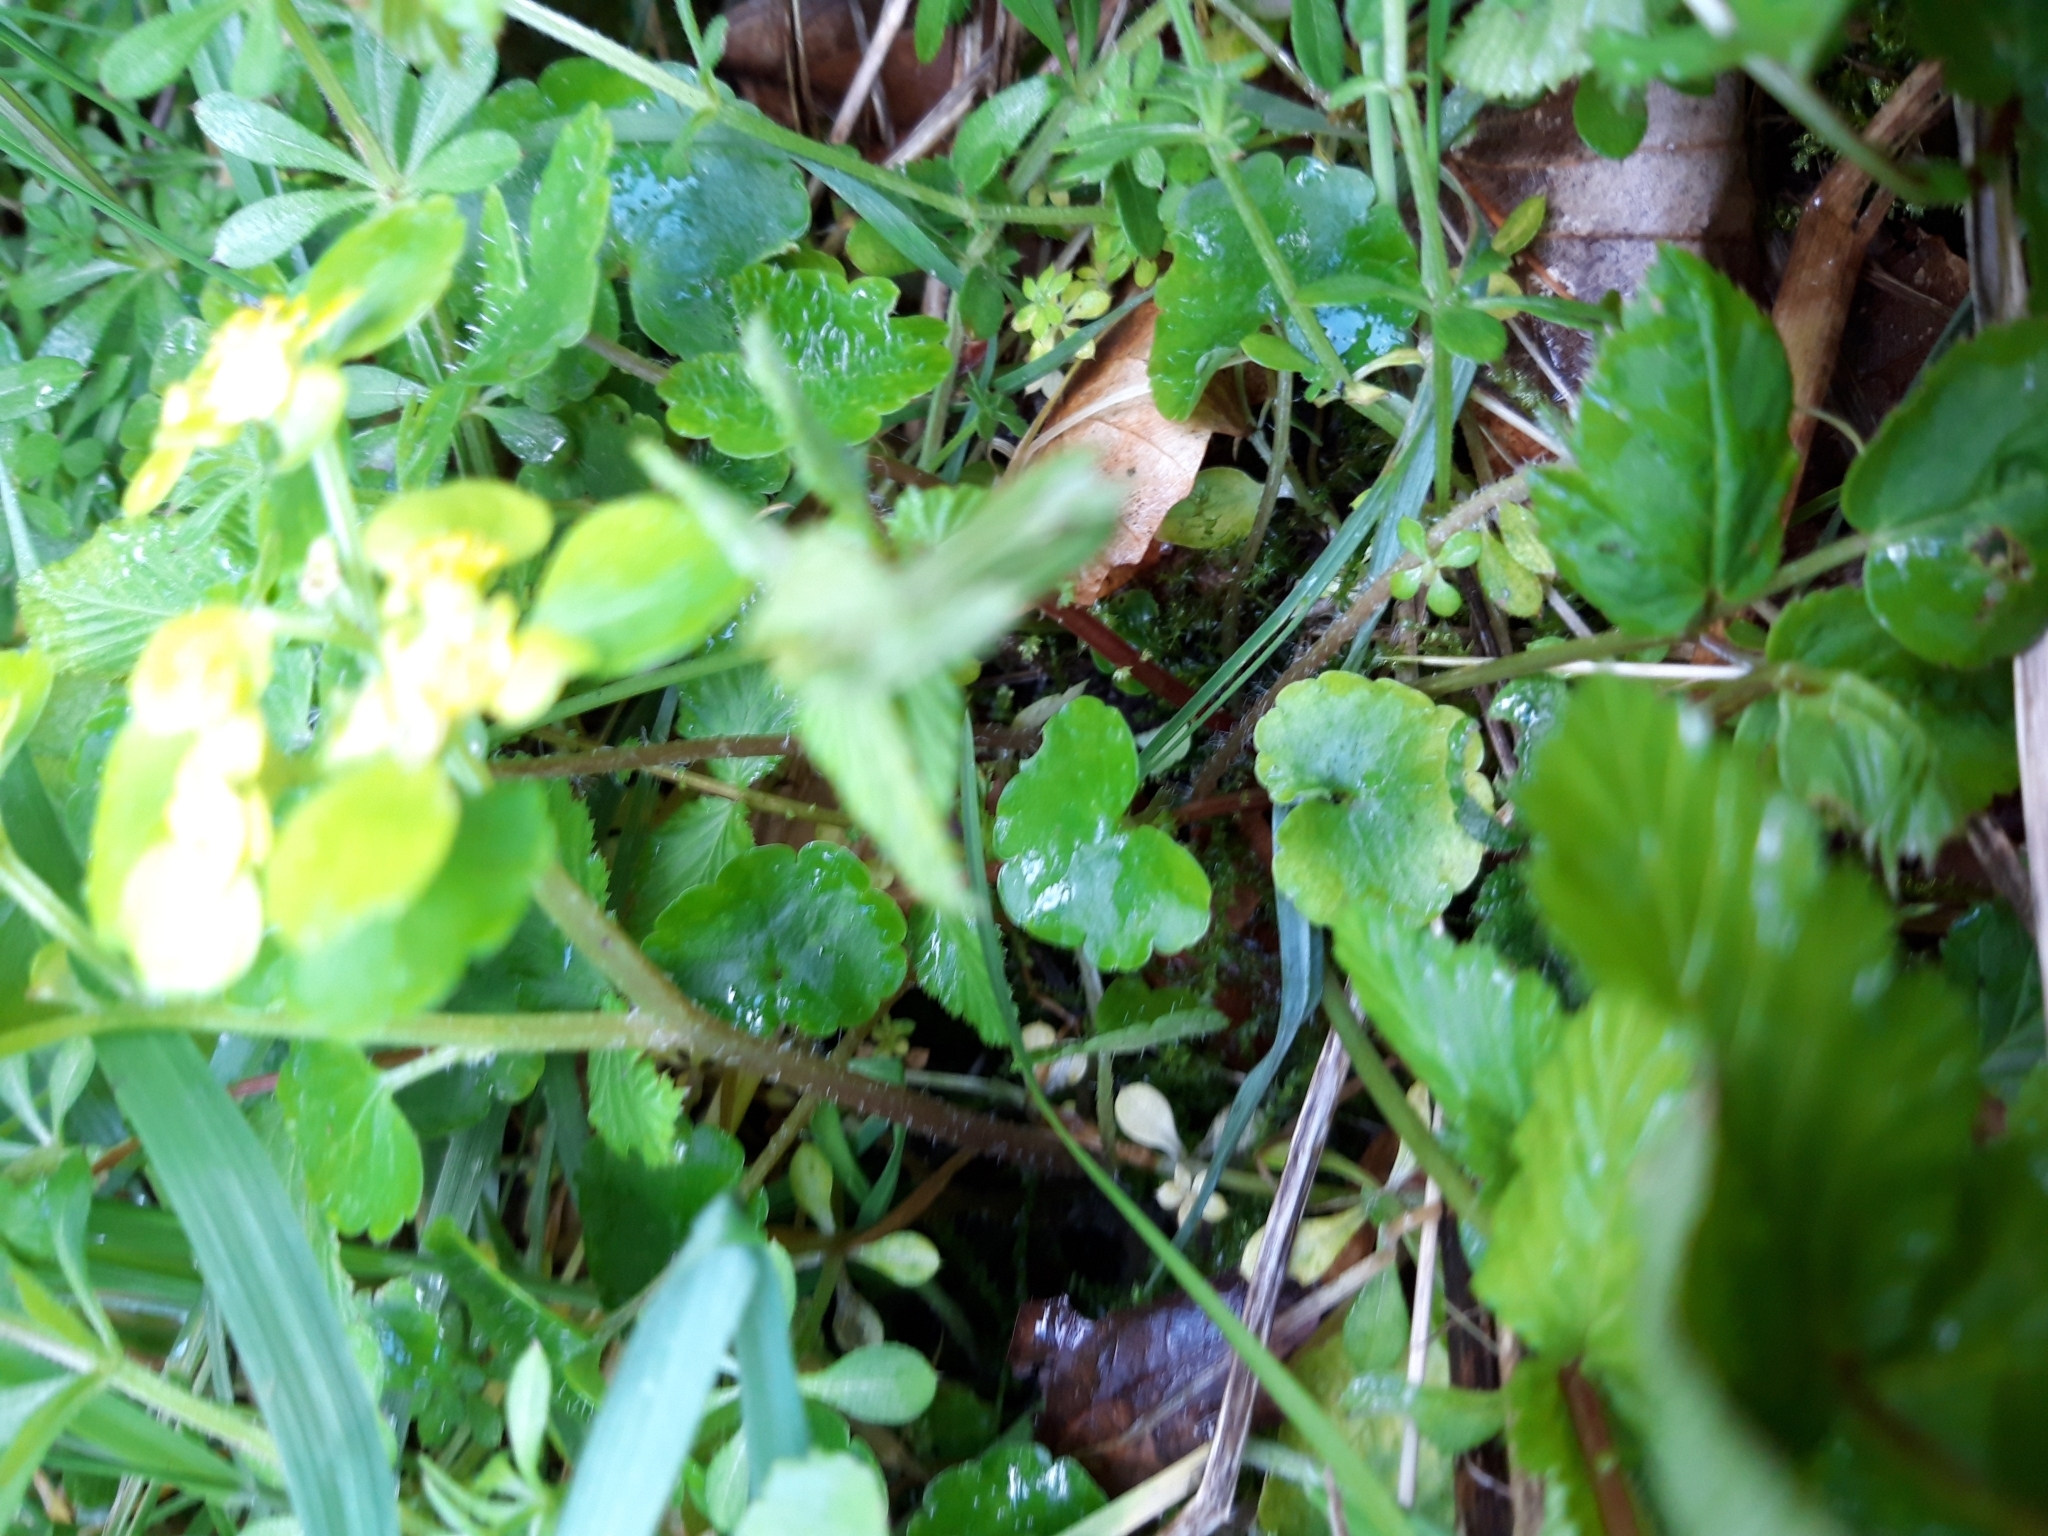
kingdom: Plantae
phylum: Tracheophyta
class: Magnoliopsida
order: Saxifragales
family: Saxifragaceae
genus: Chrysosplenium
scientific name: Chrysosplenium alternifolium
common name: Alternate-leaved golden-saxifrage
